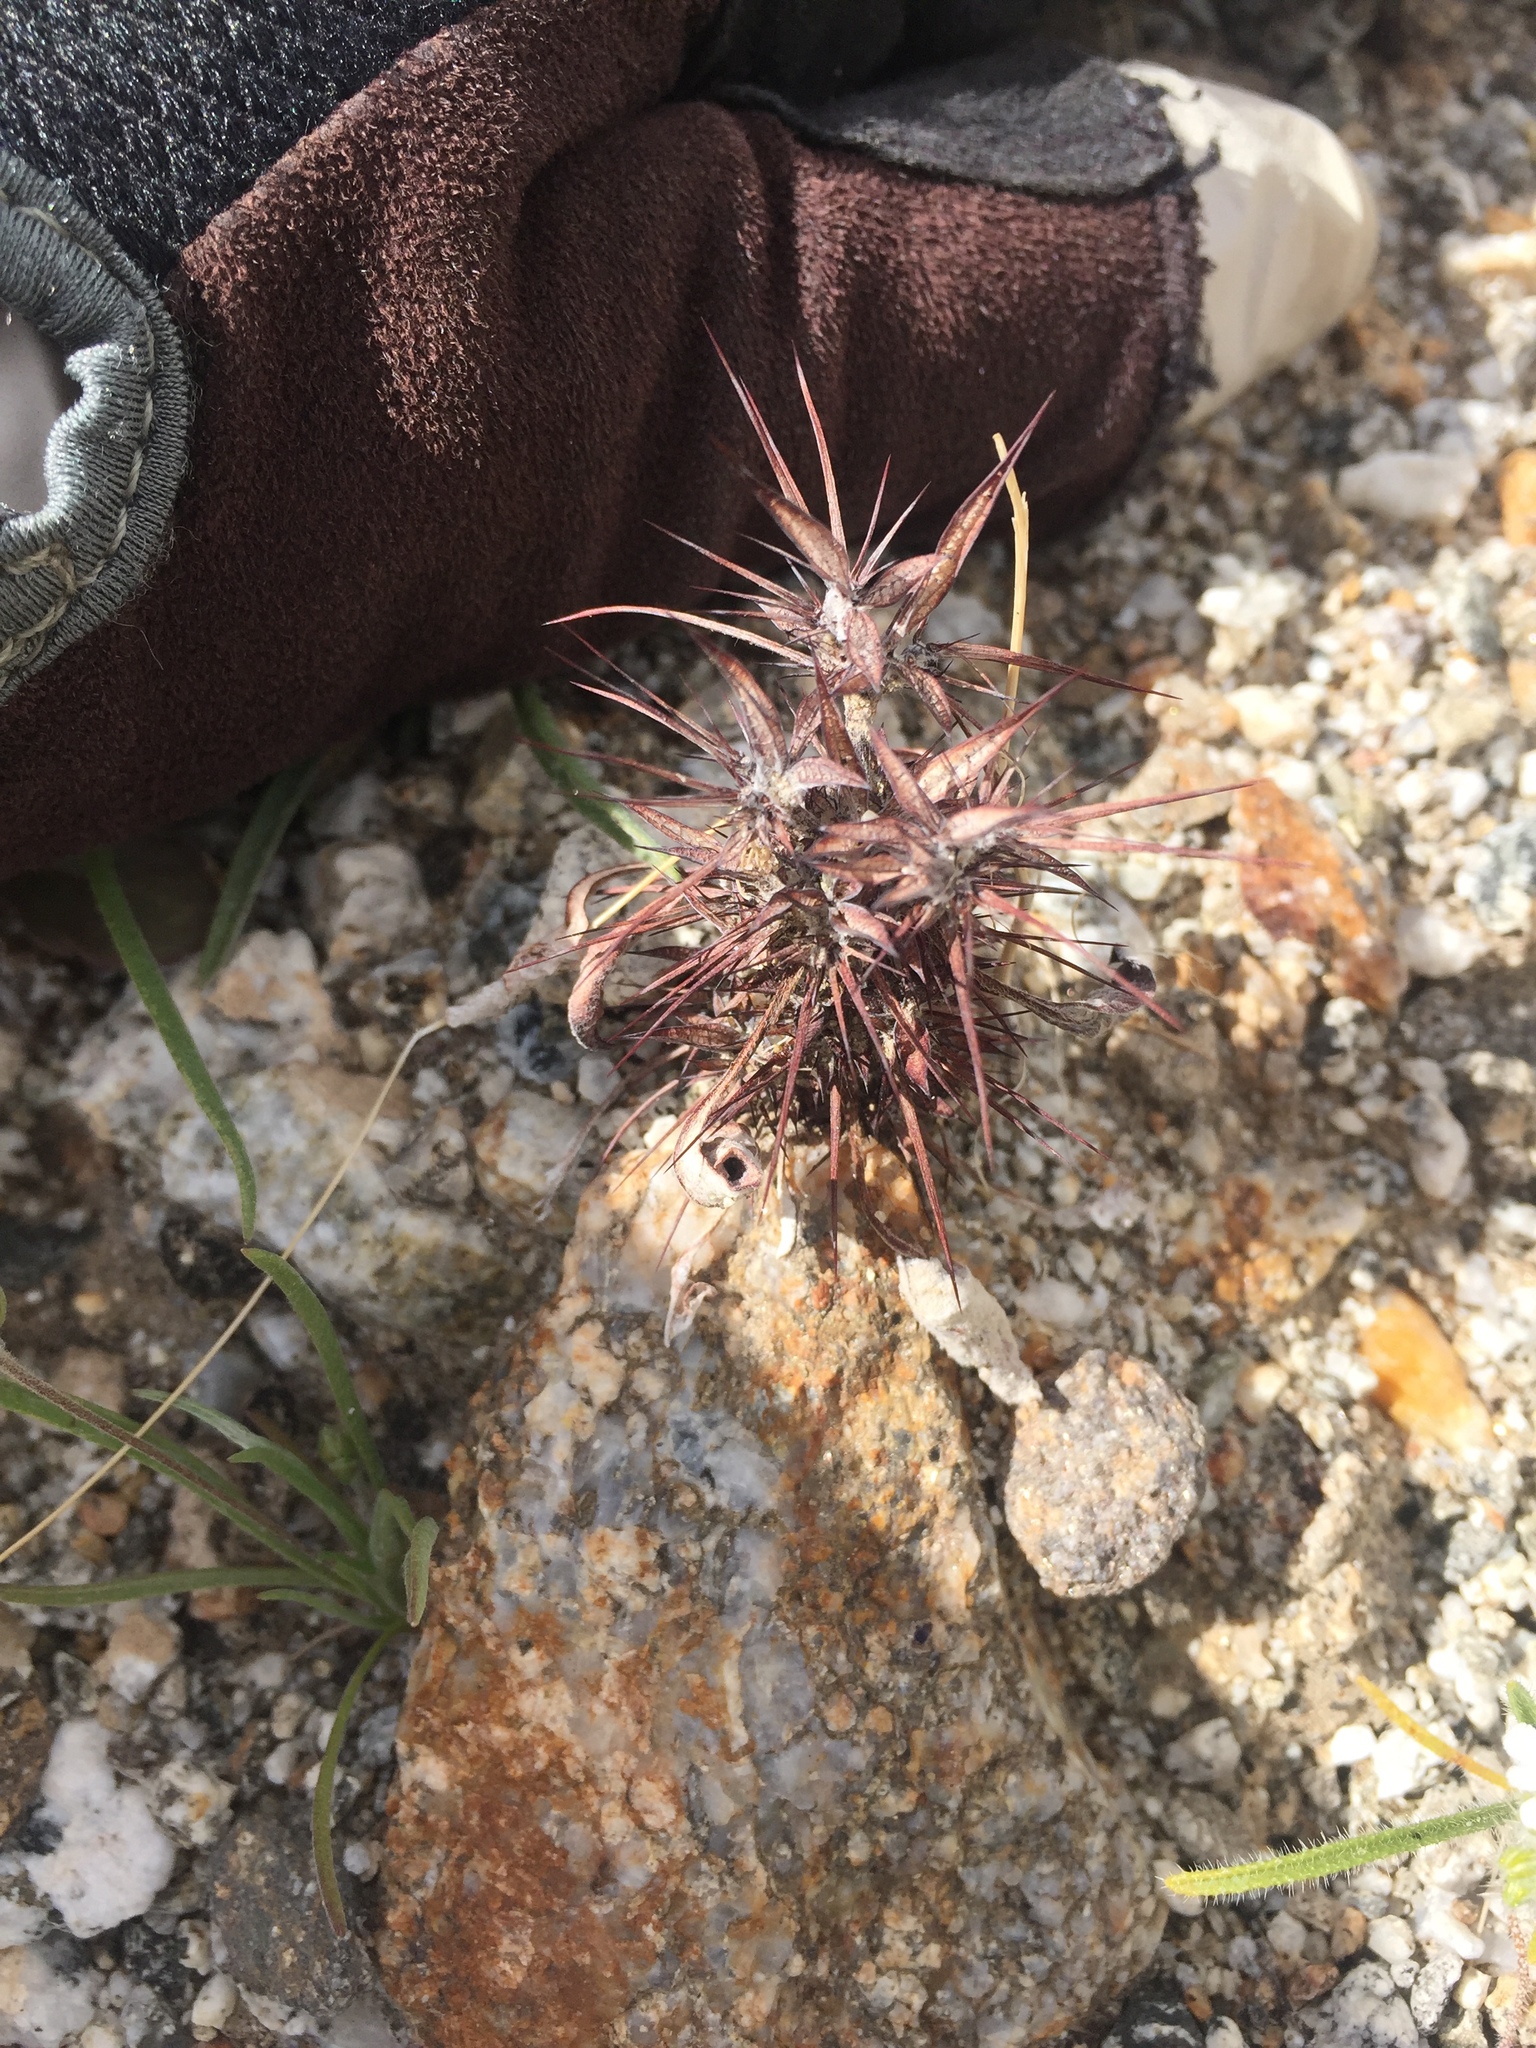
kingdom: Plantae
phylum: Tracheophyta
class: Magnoliopsida
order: Caryophyllales
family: Polygonaceae
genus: Chorizanthe
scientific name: Chorizanthe rigida
